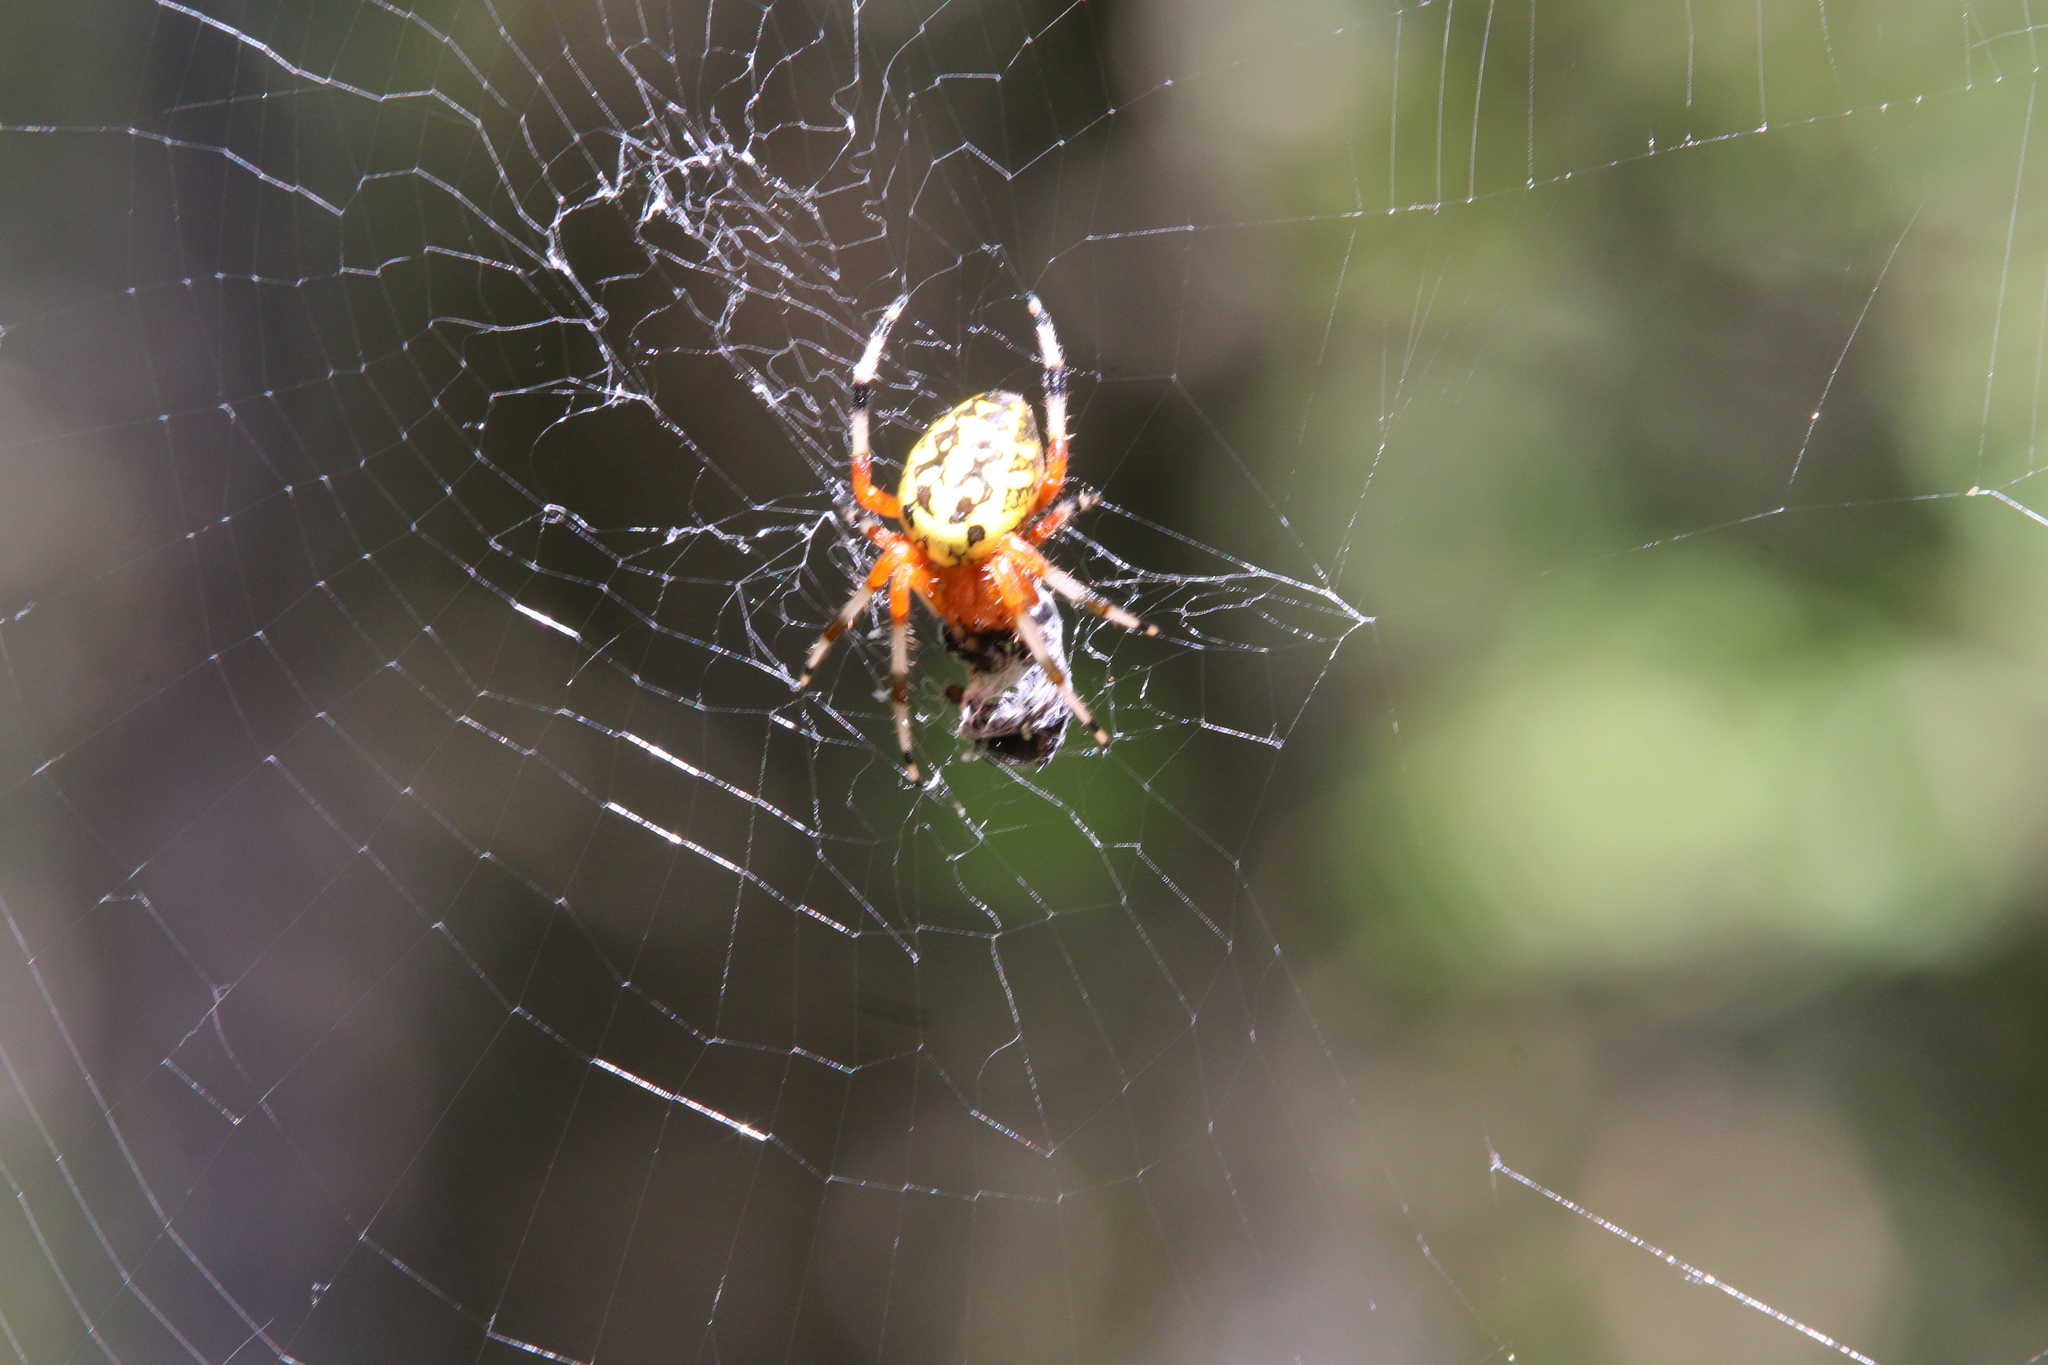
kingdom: Animalia
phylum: Arthropoda
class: Arachnida
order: Araneae
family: Araneidae
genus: Araneus
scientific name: Araneus marmoreus
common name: Marbled orbweaver
